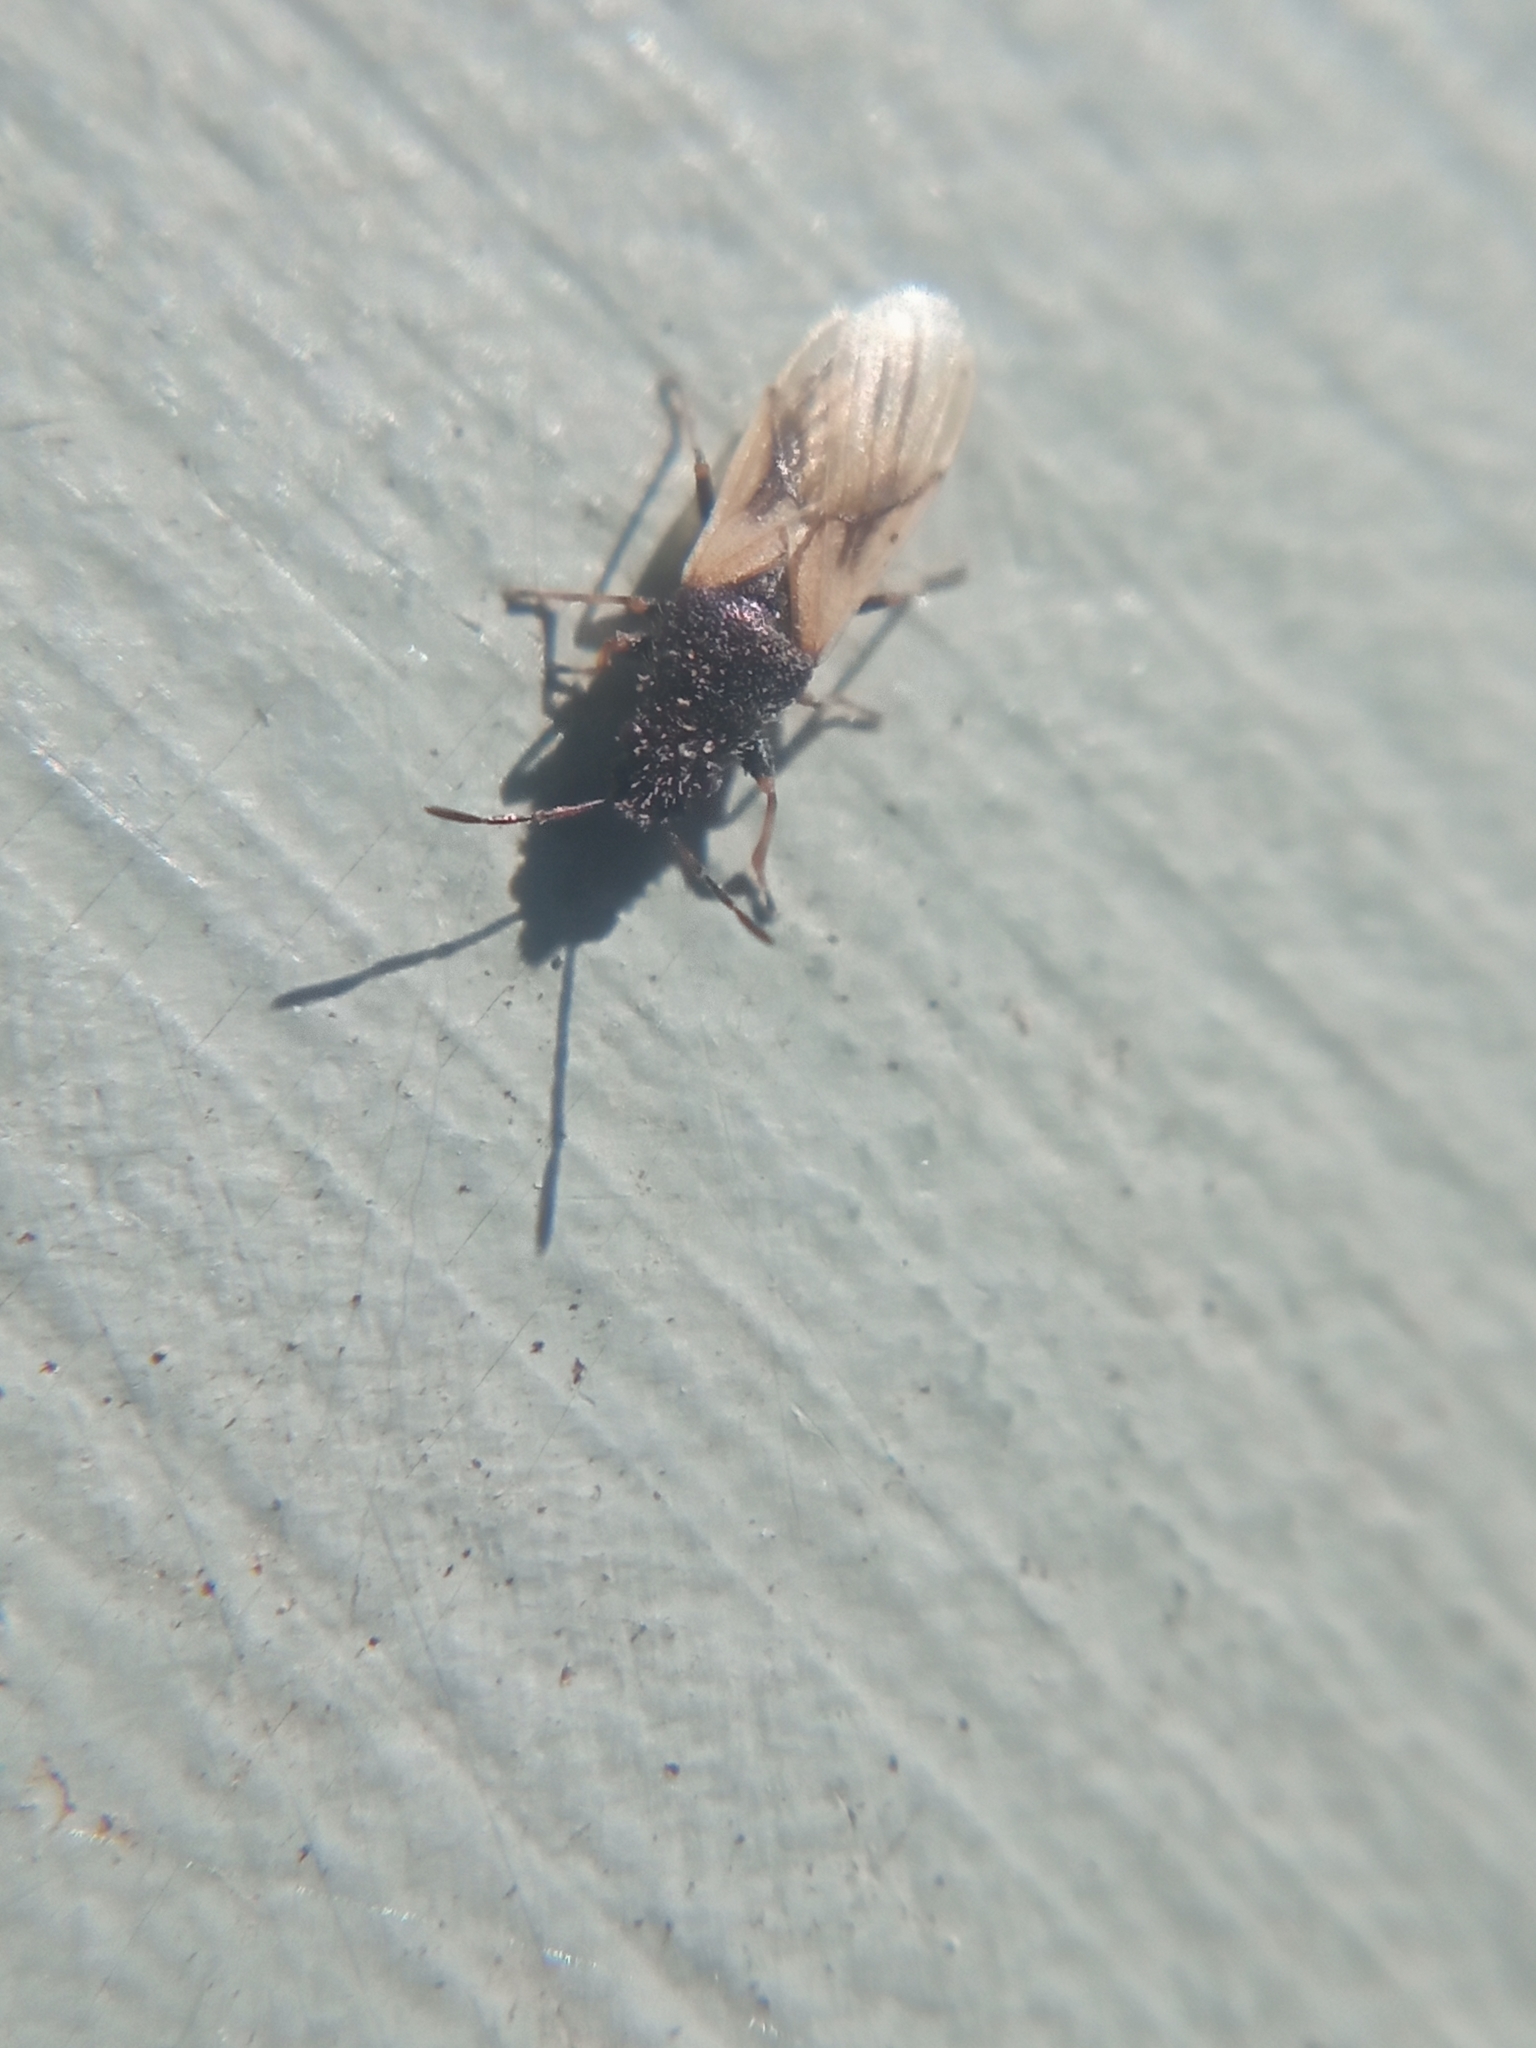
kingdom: Animalia
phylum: Arthropoda
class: Insecta
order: Hemiptera
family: Oxycarenidae
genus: Metopoplax
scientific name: Metopoplax ditomoides
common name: Seed bug
